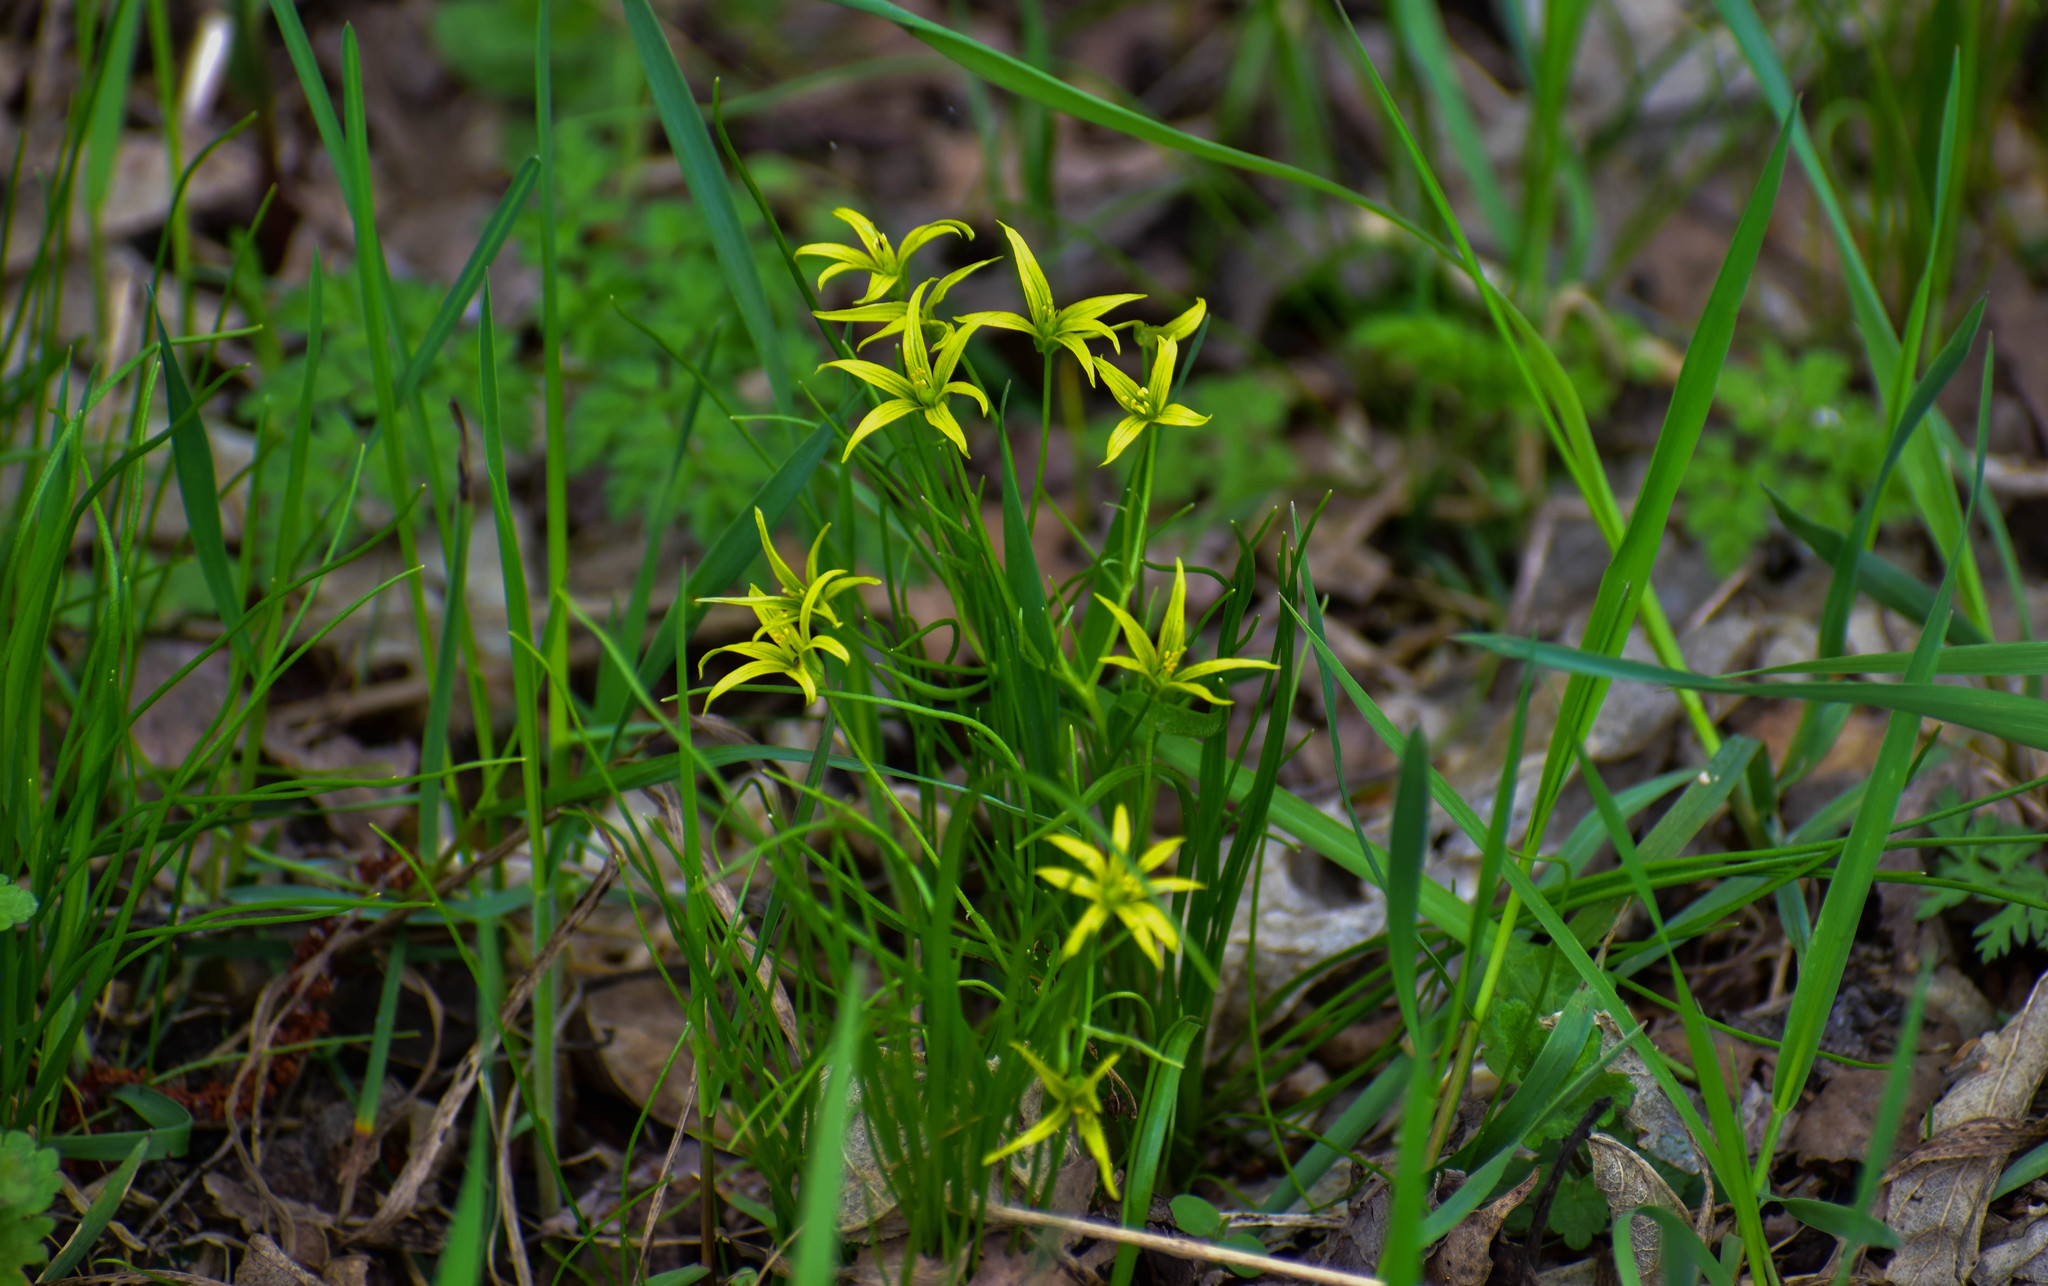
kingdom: Plantae
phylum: Tracheophyta
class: Liliopsida
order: Liliales
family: Liliaceae
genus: Gagea
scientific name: Gagea minima
